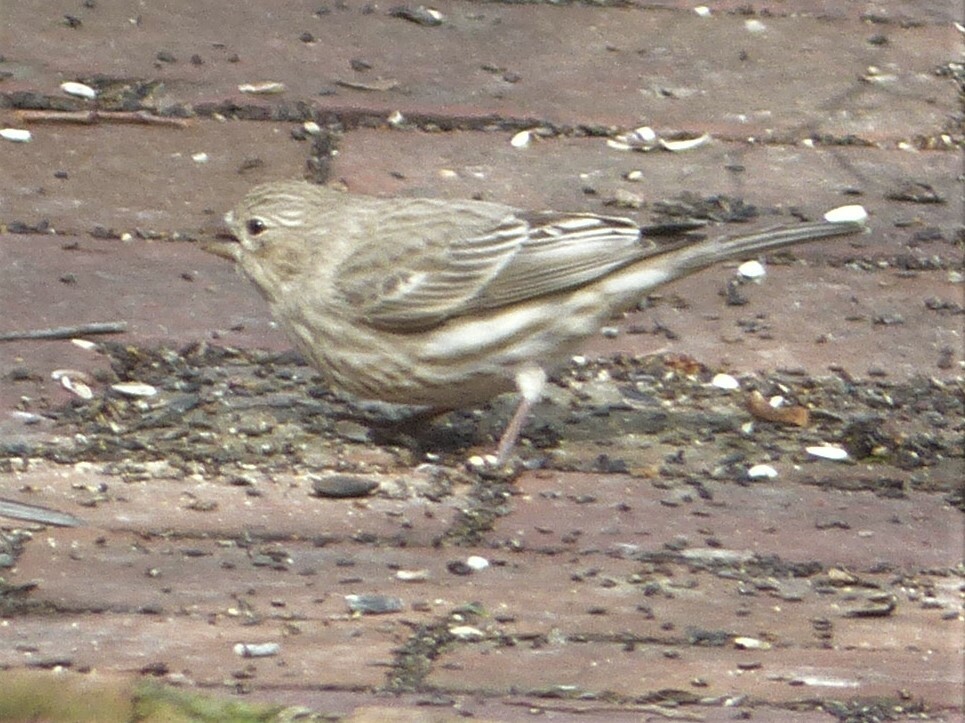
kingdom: Animalia
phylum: Chordata
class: Aves
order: Passeriformes
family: Fringillidae
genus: Haemorhous
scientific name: Haemorhous mexicanus
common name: House finch
